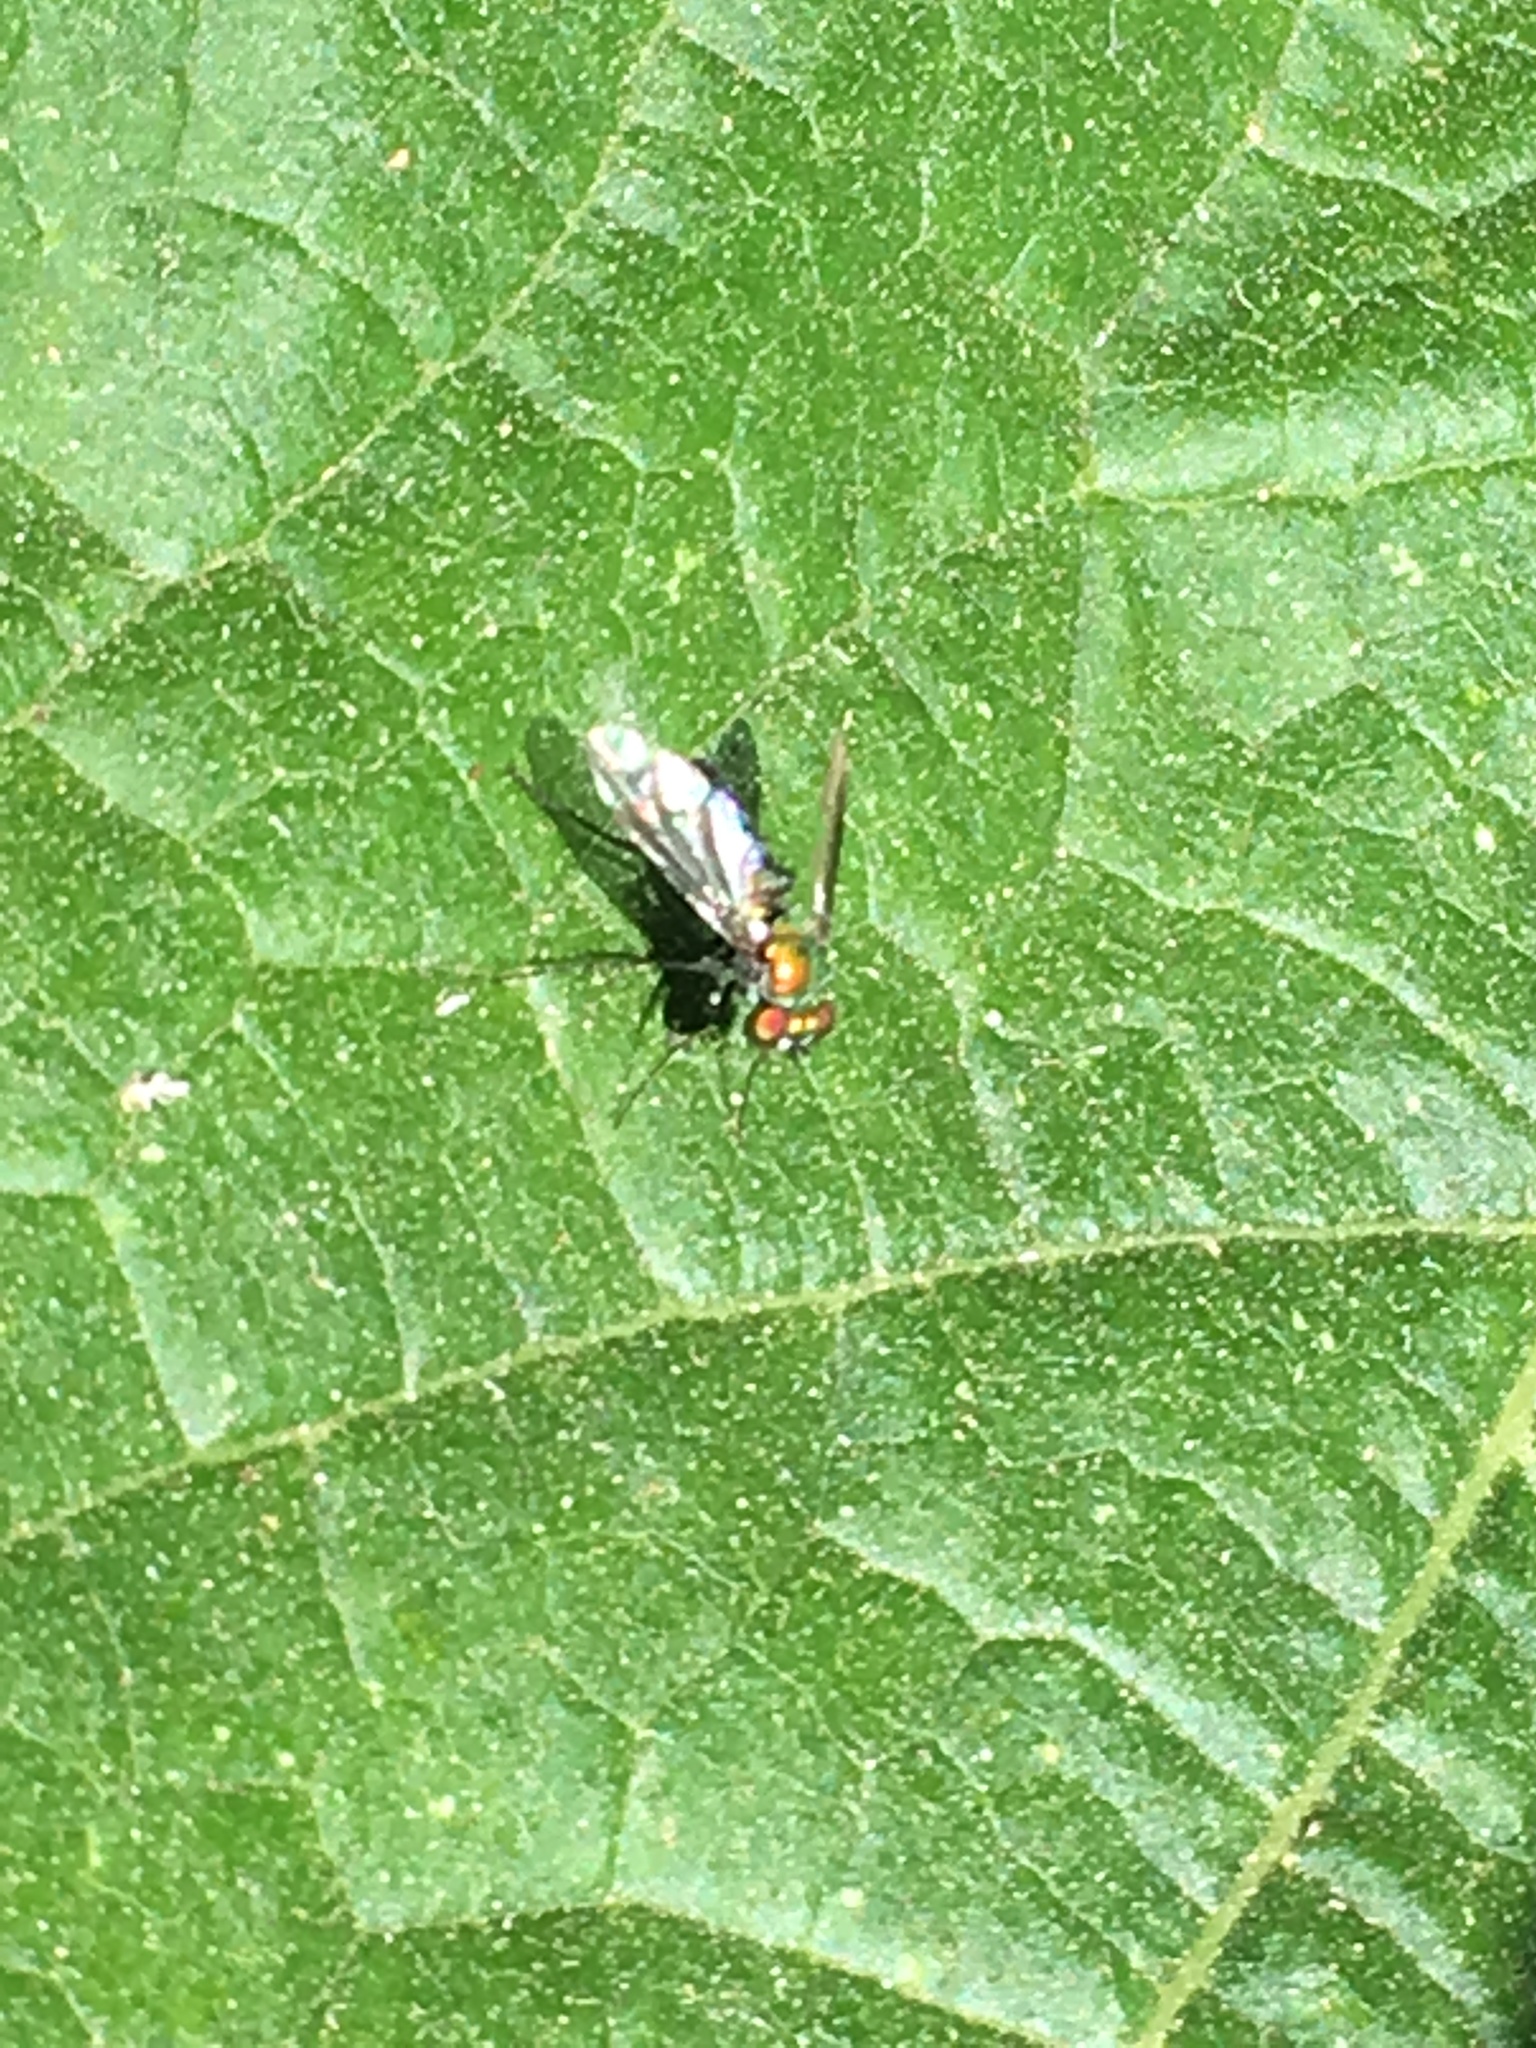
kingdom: Animalia
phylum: Arthropoda
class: Insecta
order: Diptera
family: Dolichopodidae
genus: Condylostylus
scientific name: Condylostylus longicornis
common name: Long-legged fly
